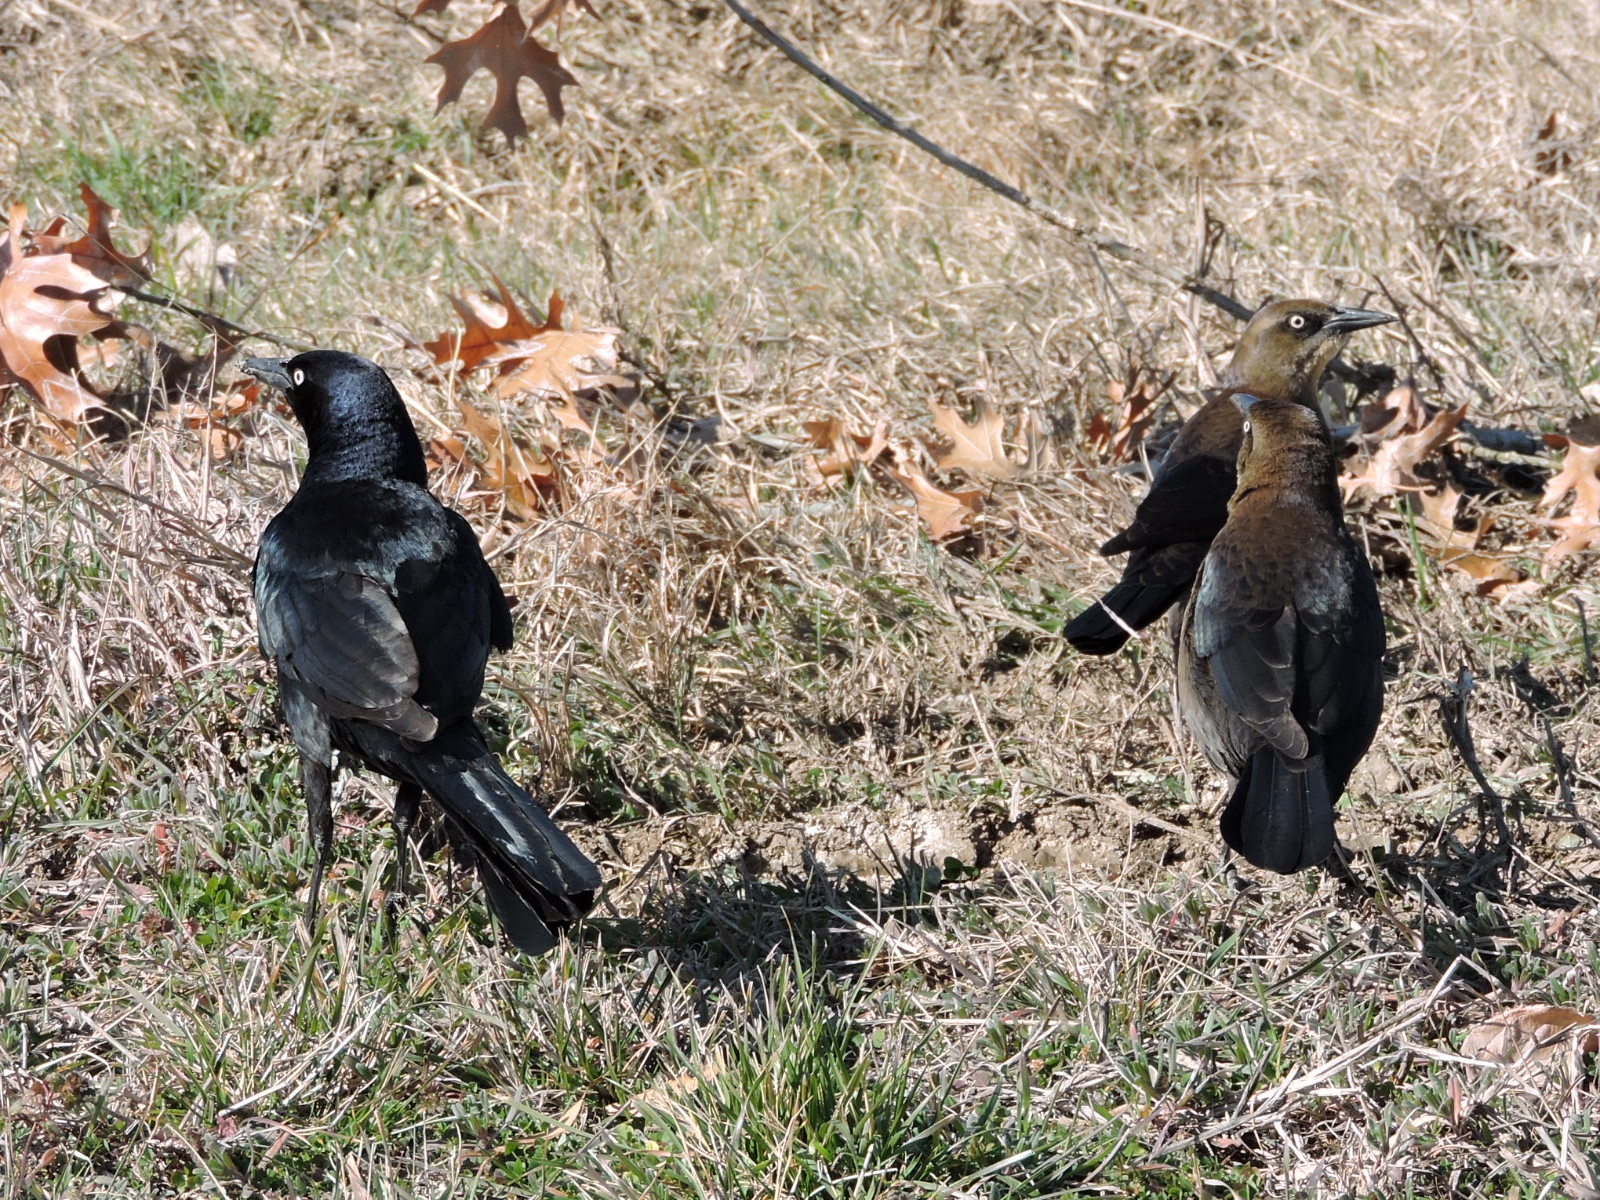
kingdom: Animalia
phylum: Chordata
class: Aves
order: Passeriformes
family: Icteridae
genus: Quiscalus
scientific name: Quiscalus mexicanus
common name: Great-tailed grackle
